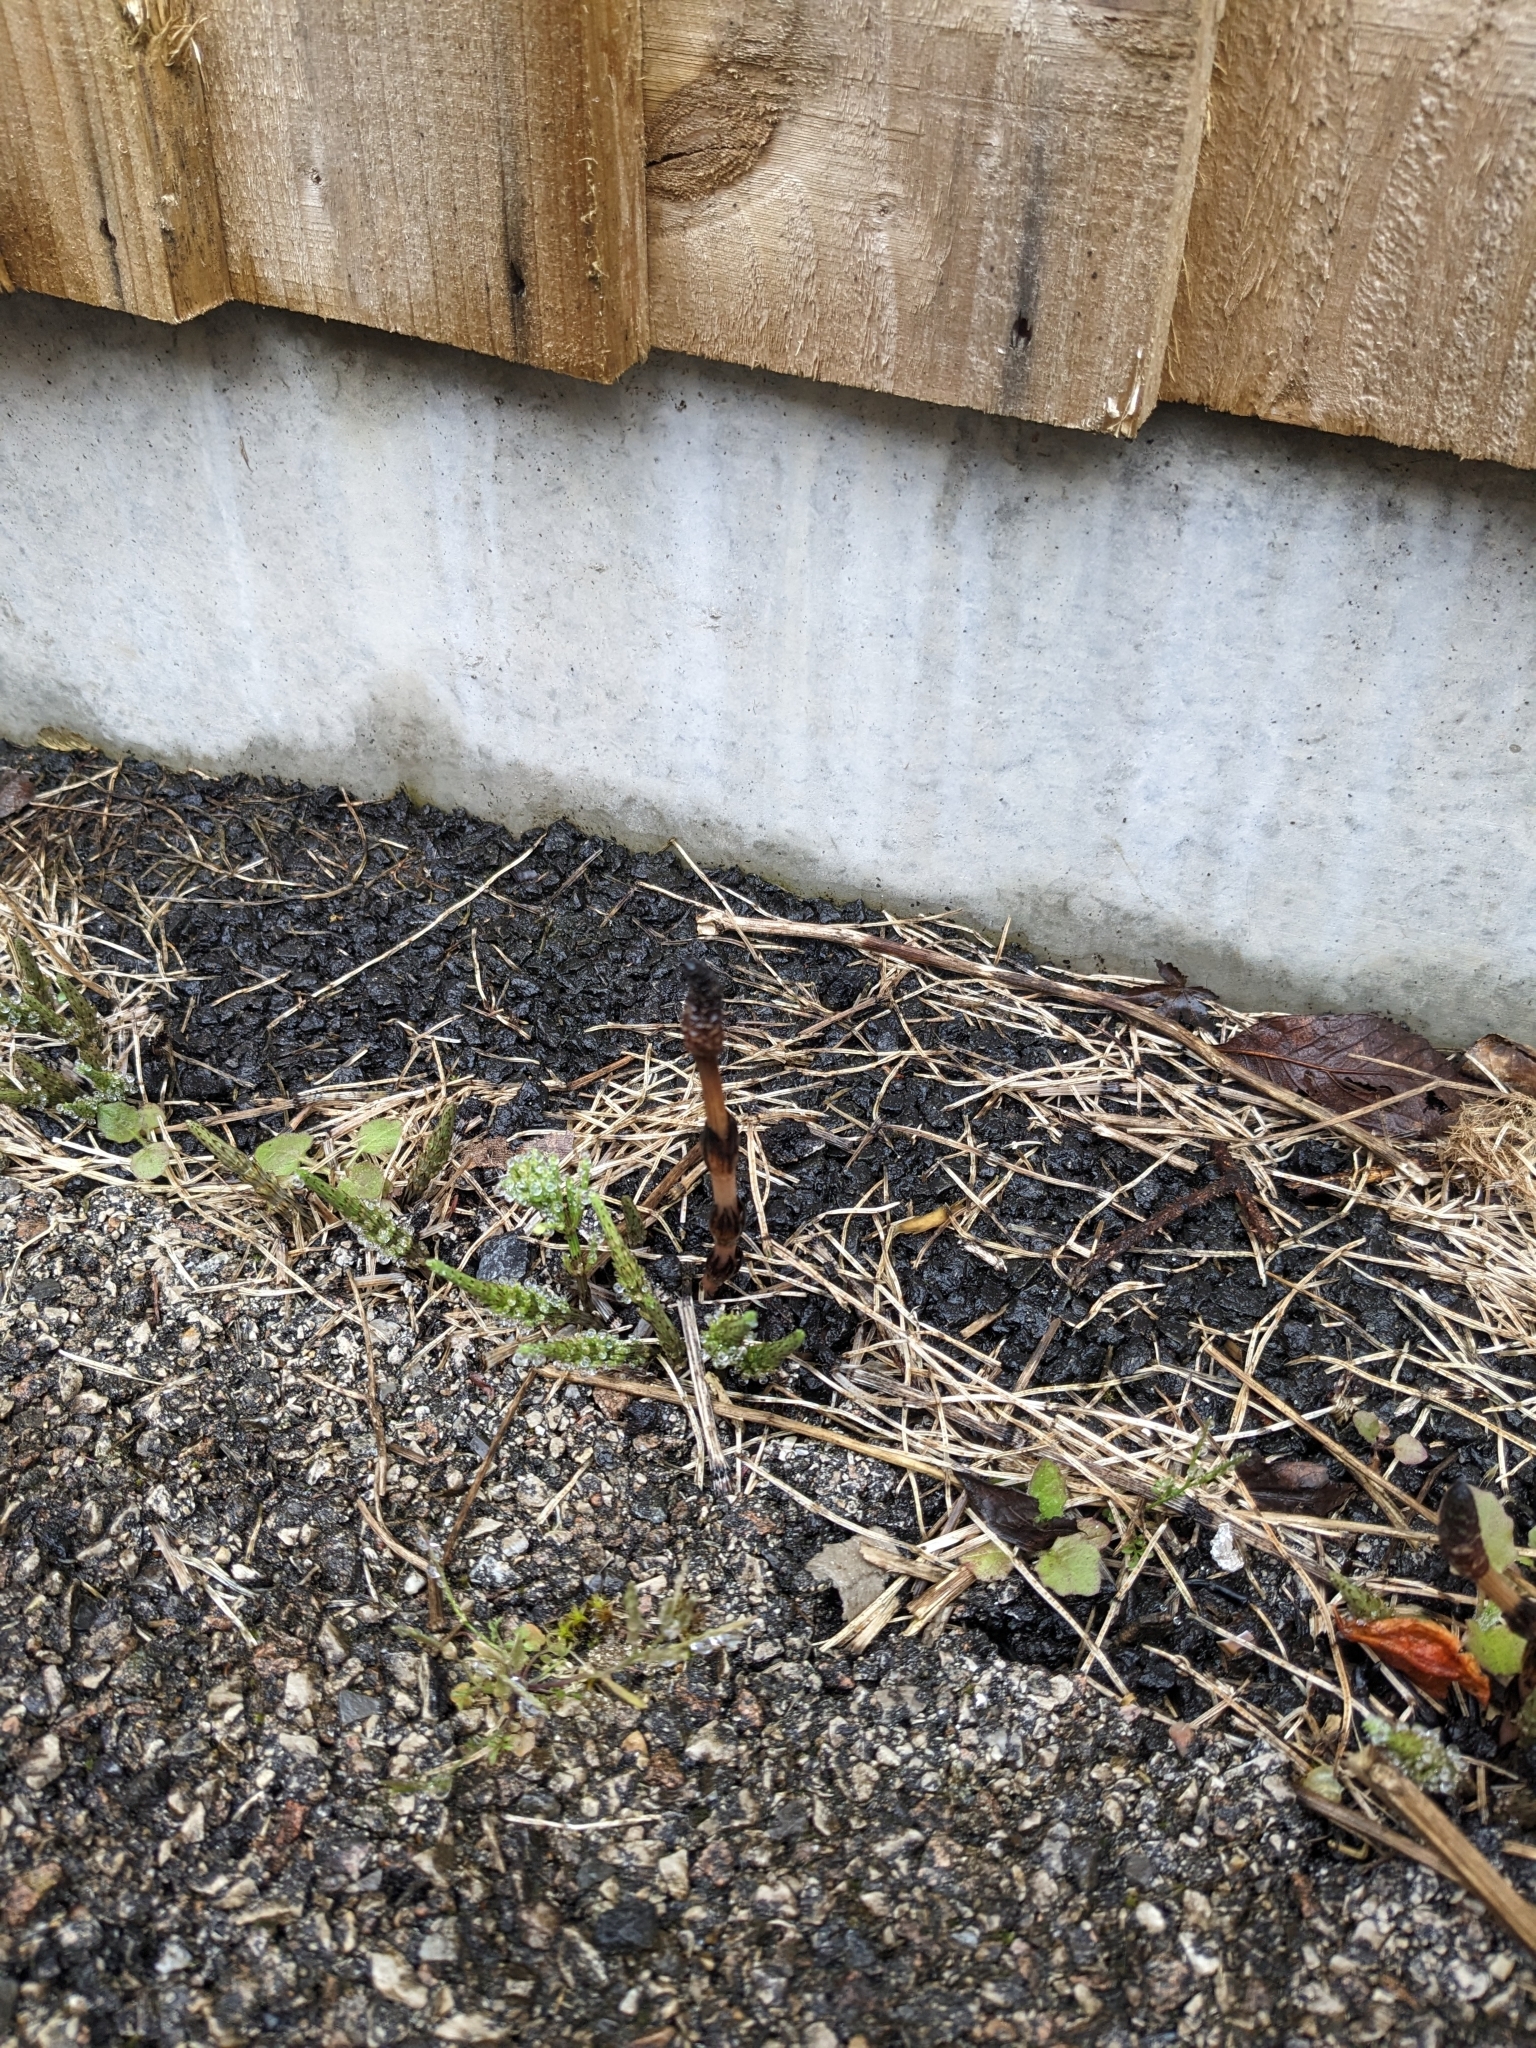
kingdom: Plantae
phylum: Tracheophyta
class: Polypodiopsida
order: Equisetales
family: Equisetaceae
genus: Equisetum
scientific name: Equisetum arvense
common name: Field horsetail
